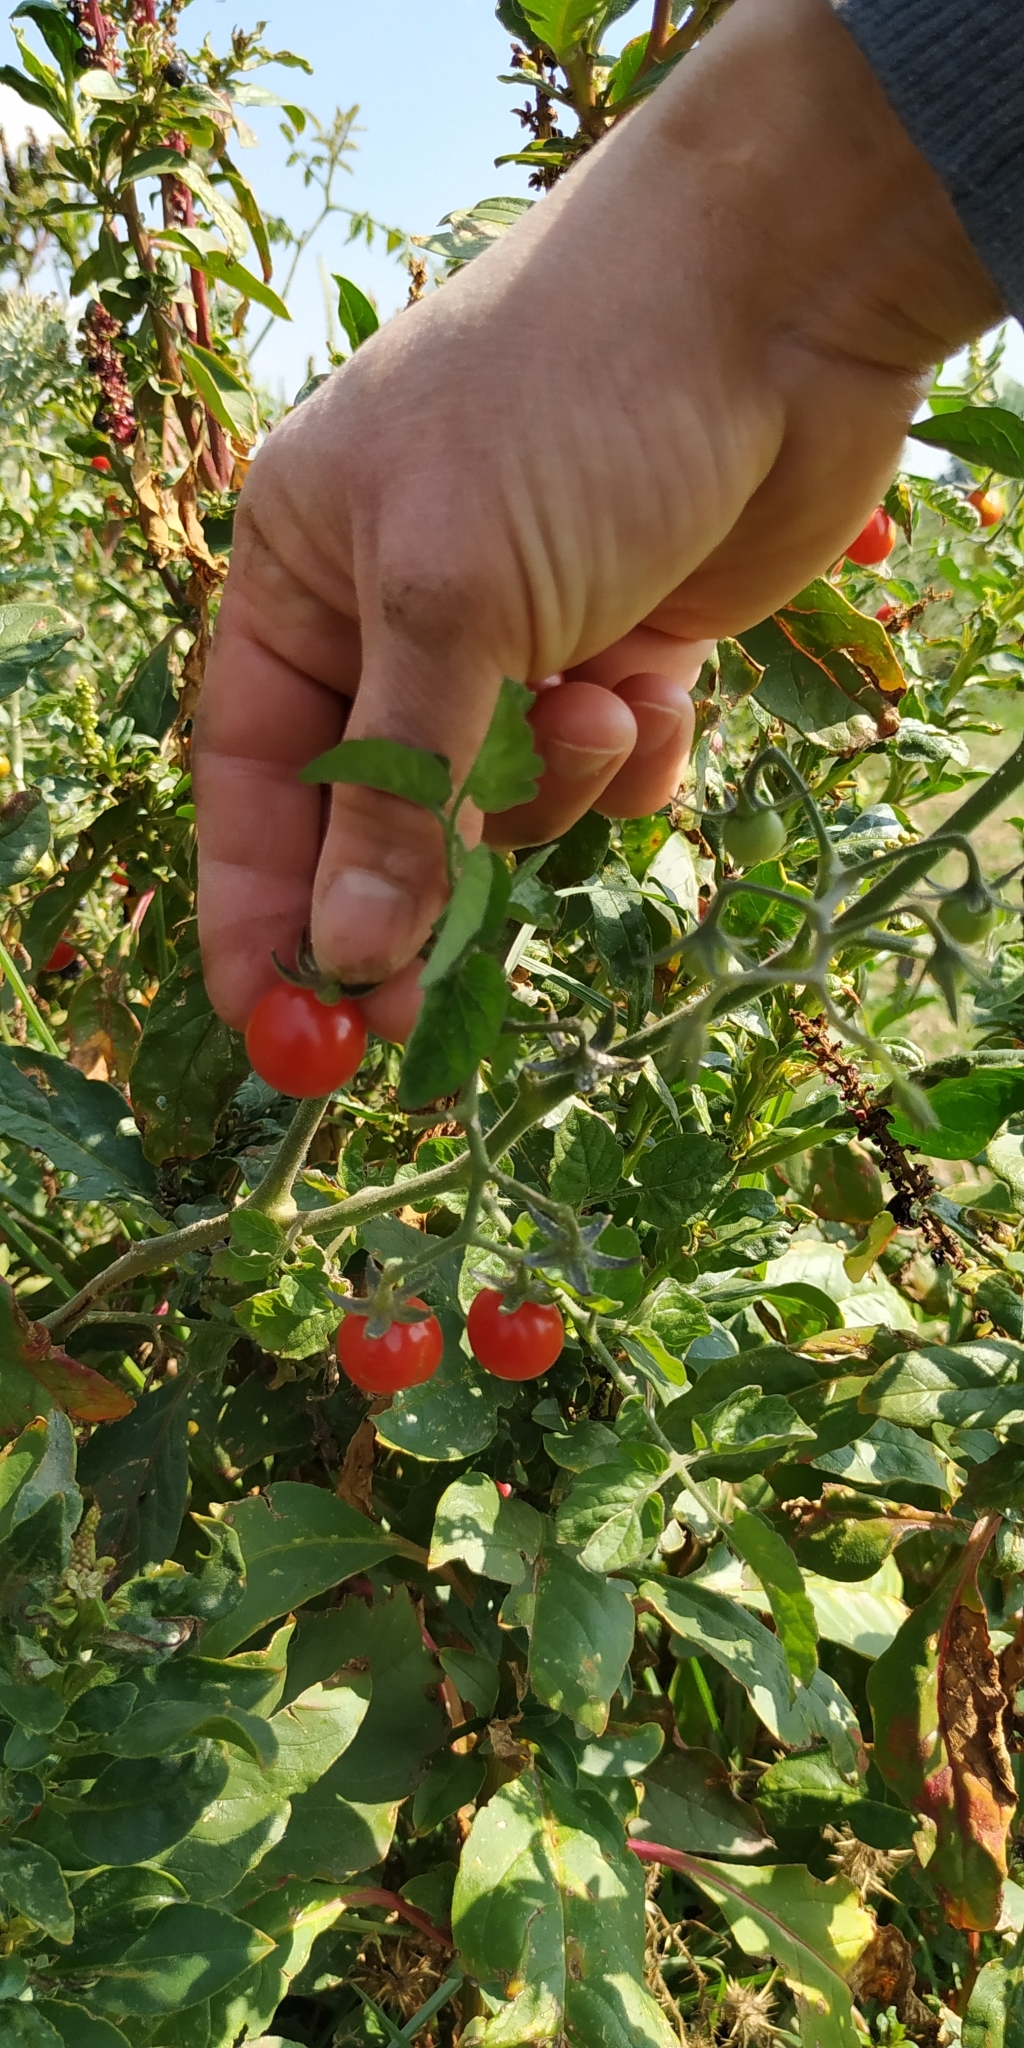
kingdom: Plantae
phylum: Tracheophyta
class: Magnoliopsida
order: Solanales
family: Solanaceae
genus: Solanum
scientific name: Solanum lycopersicum
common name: Garden tomato
